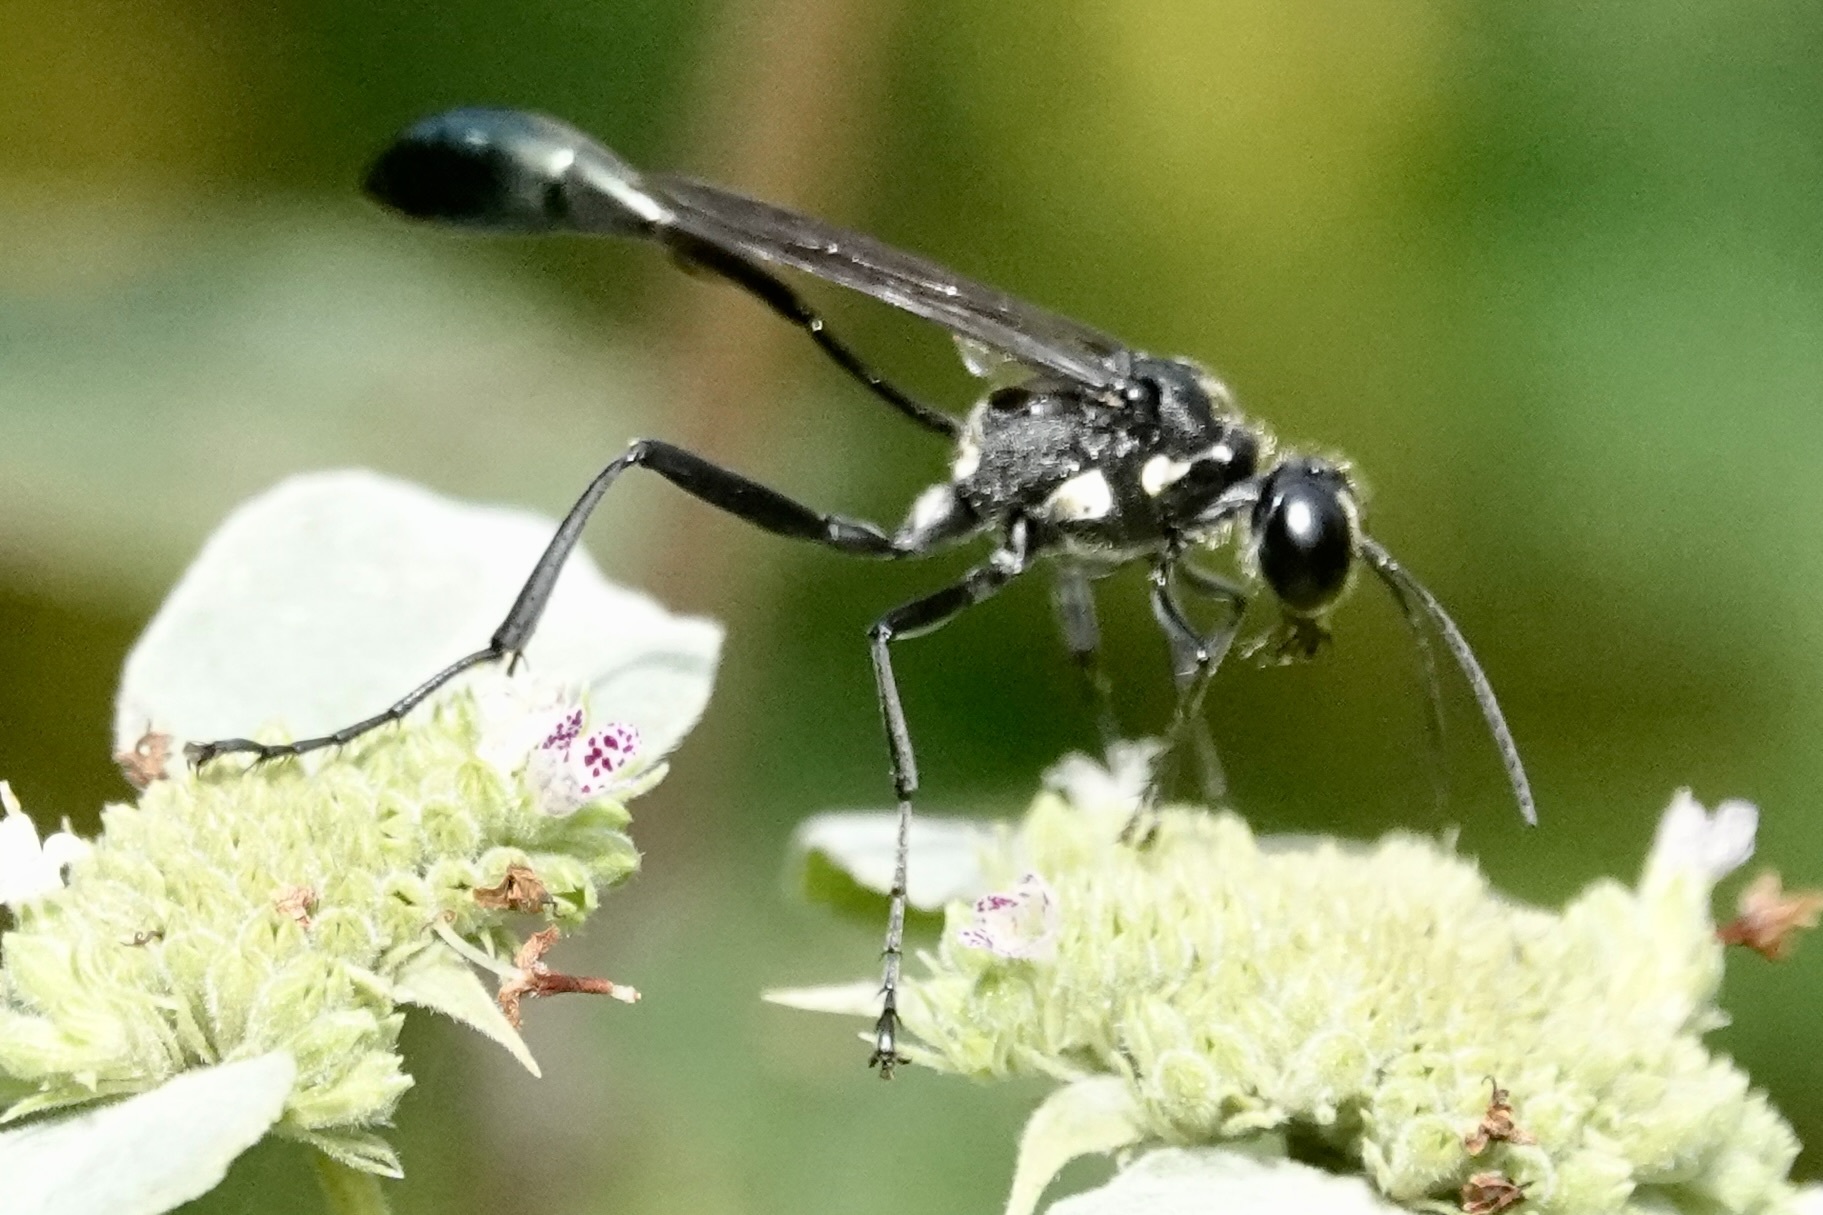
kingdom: Animalia
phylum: Arthropoda
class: Insecta
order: Hymenoptera
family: Sphecidae
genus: Eremnophila
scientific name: Eremnophila aureonotata
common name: Gold-marked thread-waisted wasp
